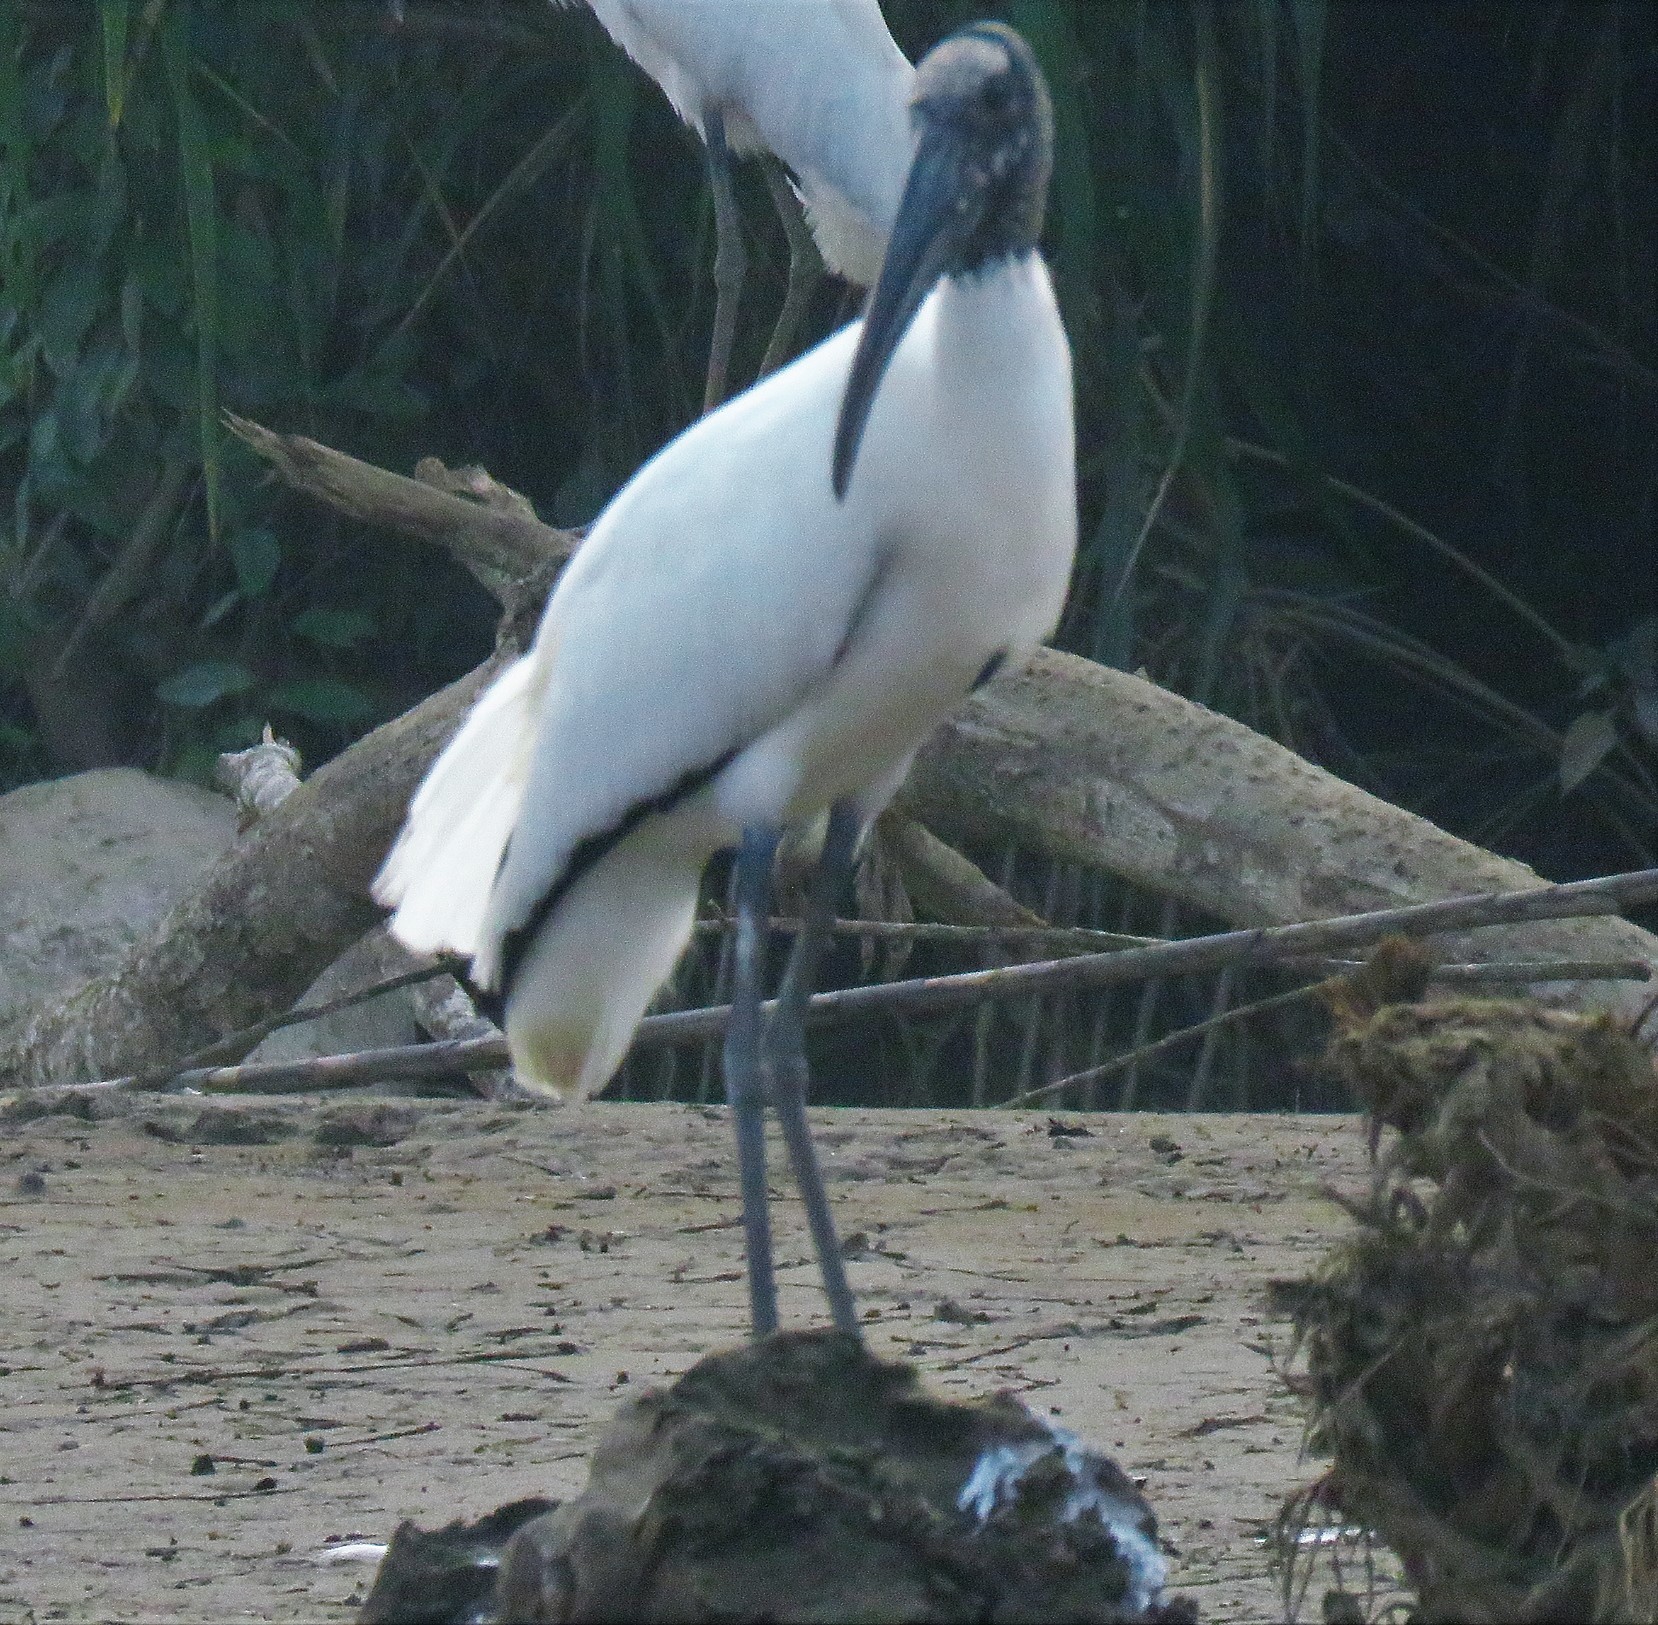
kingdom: Animalia
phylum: Chordata
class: Aves
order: Ciconiiformes
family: Ciconiidae
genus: Mycteria
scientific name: Mycteria americana
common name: Wood stork
